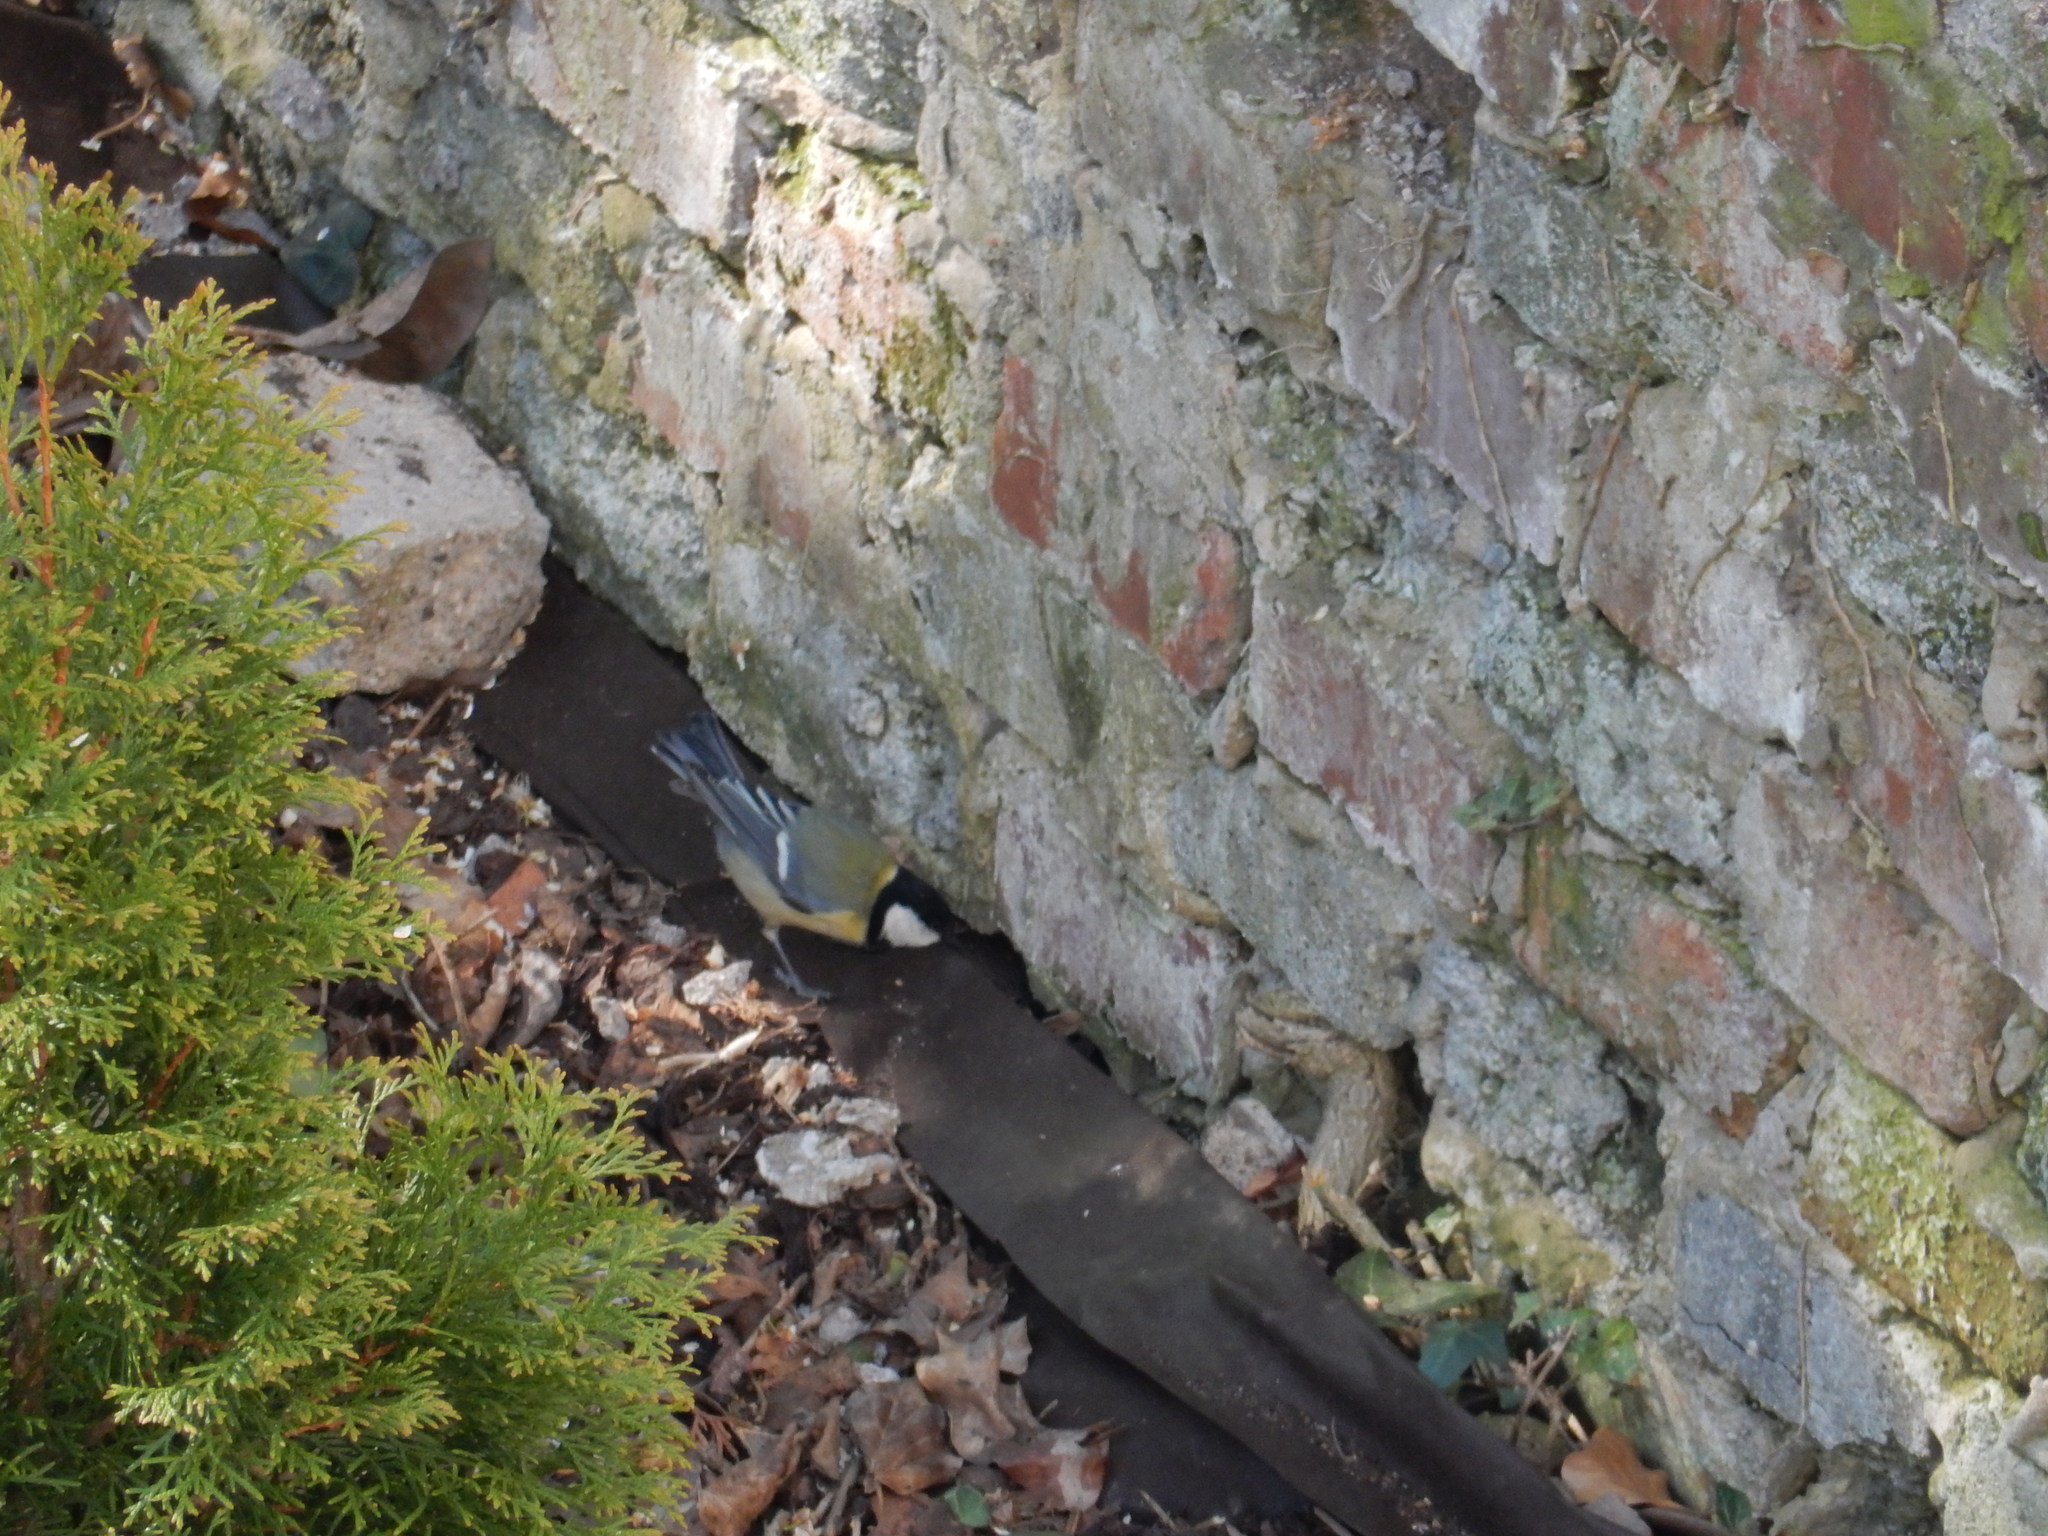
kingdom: Animalia
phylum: Chordata
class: Aves
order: Passeriformes
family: Paridae
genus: Parus
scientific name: Parus major
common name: Great tit
